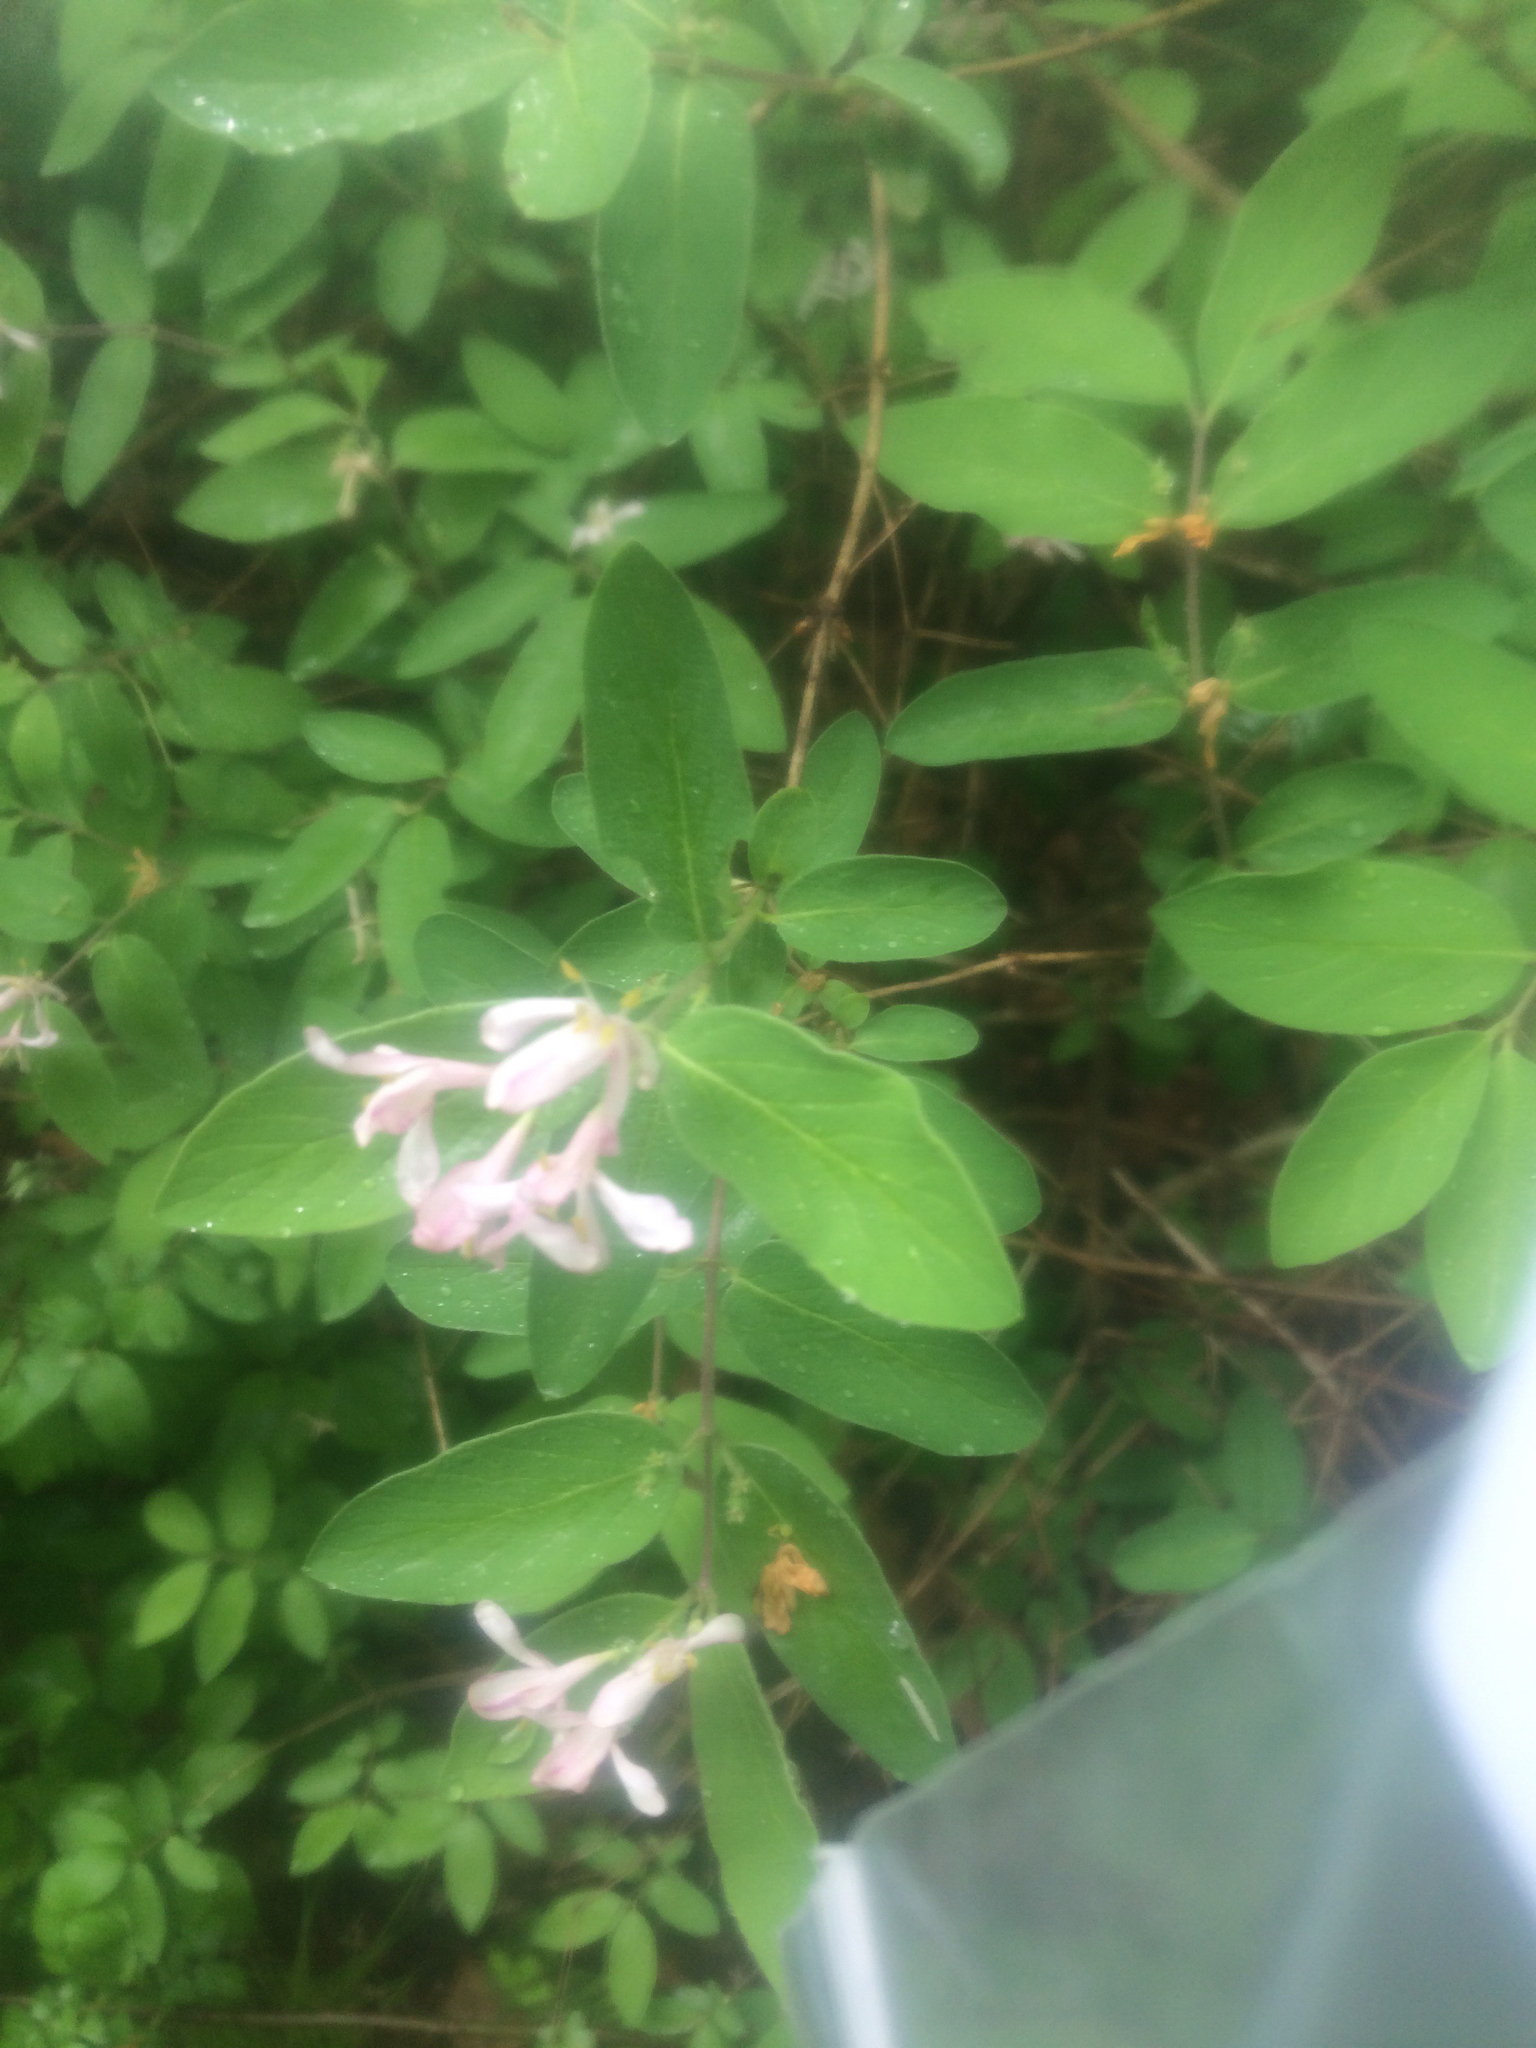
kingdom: Plantae
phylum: Tracheophyta
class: Magnoliopsida
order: Dipsacales
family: Caprifoliaceae
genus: Lonicera
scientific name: Lonicera tatarica
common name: Tatarian honeysuckle
